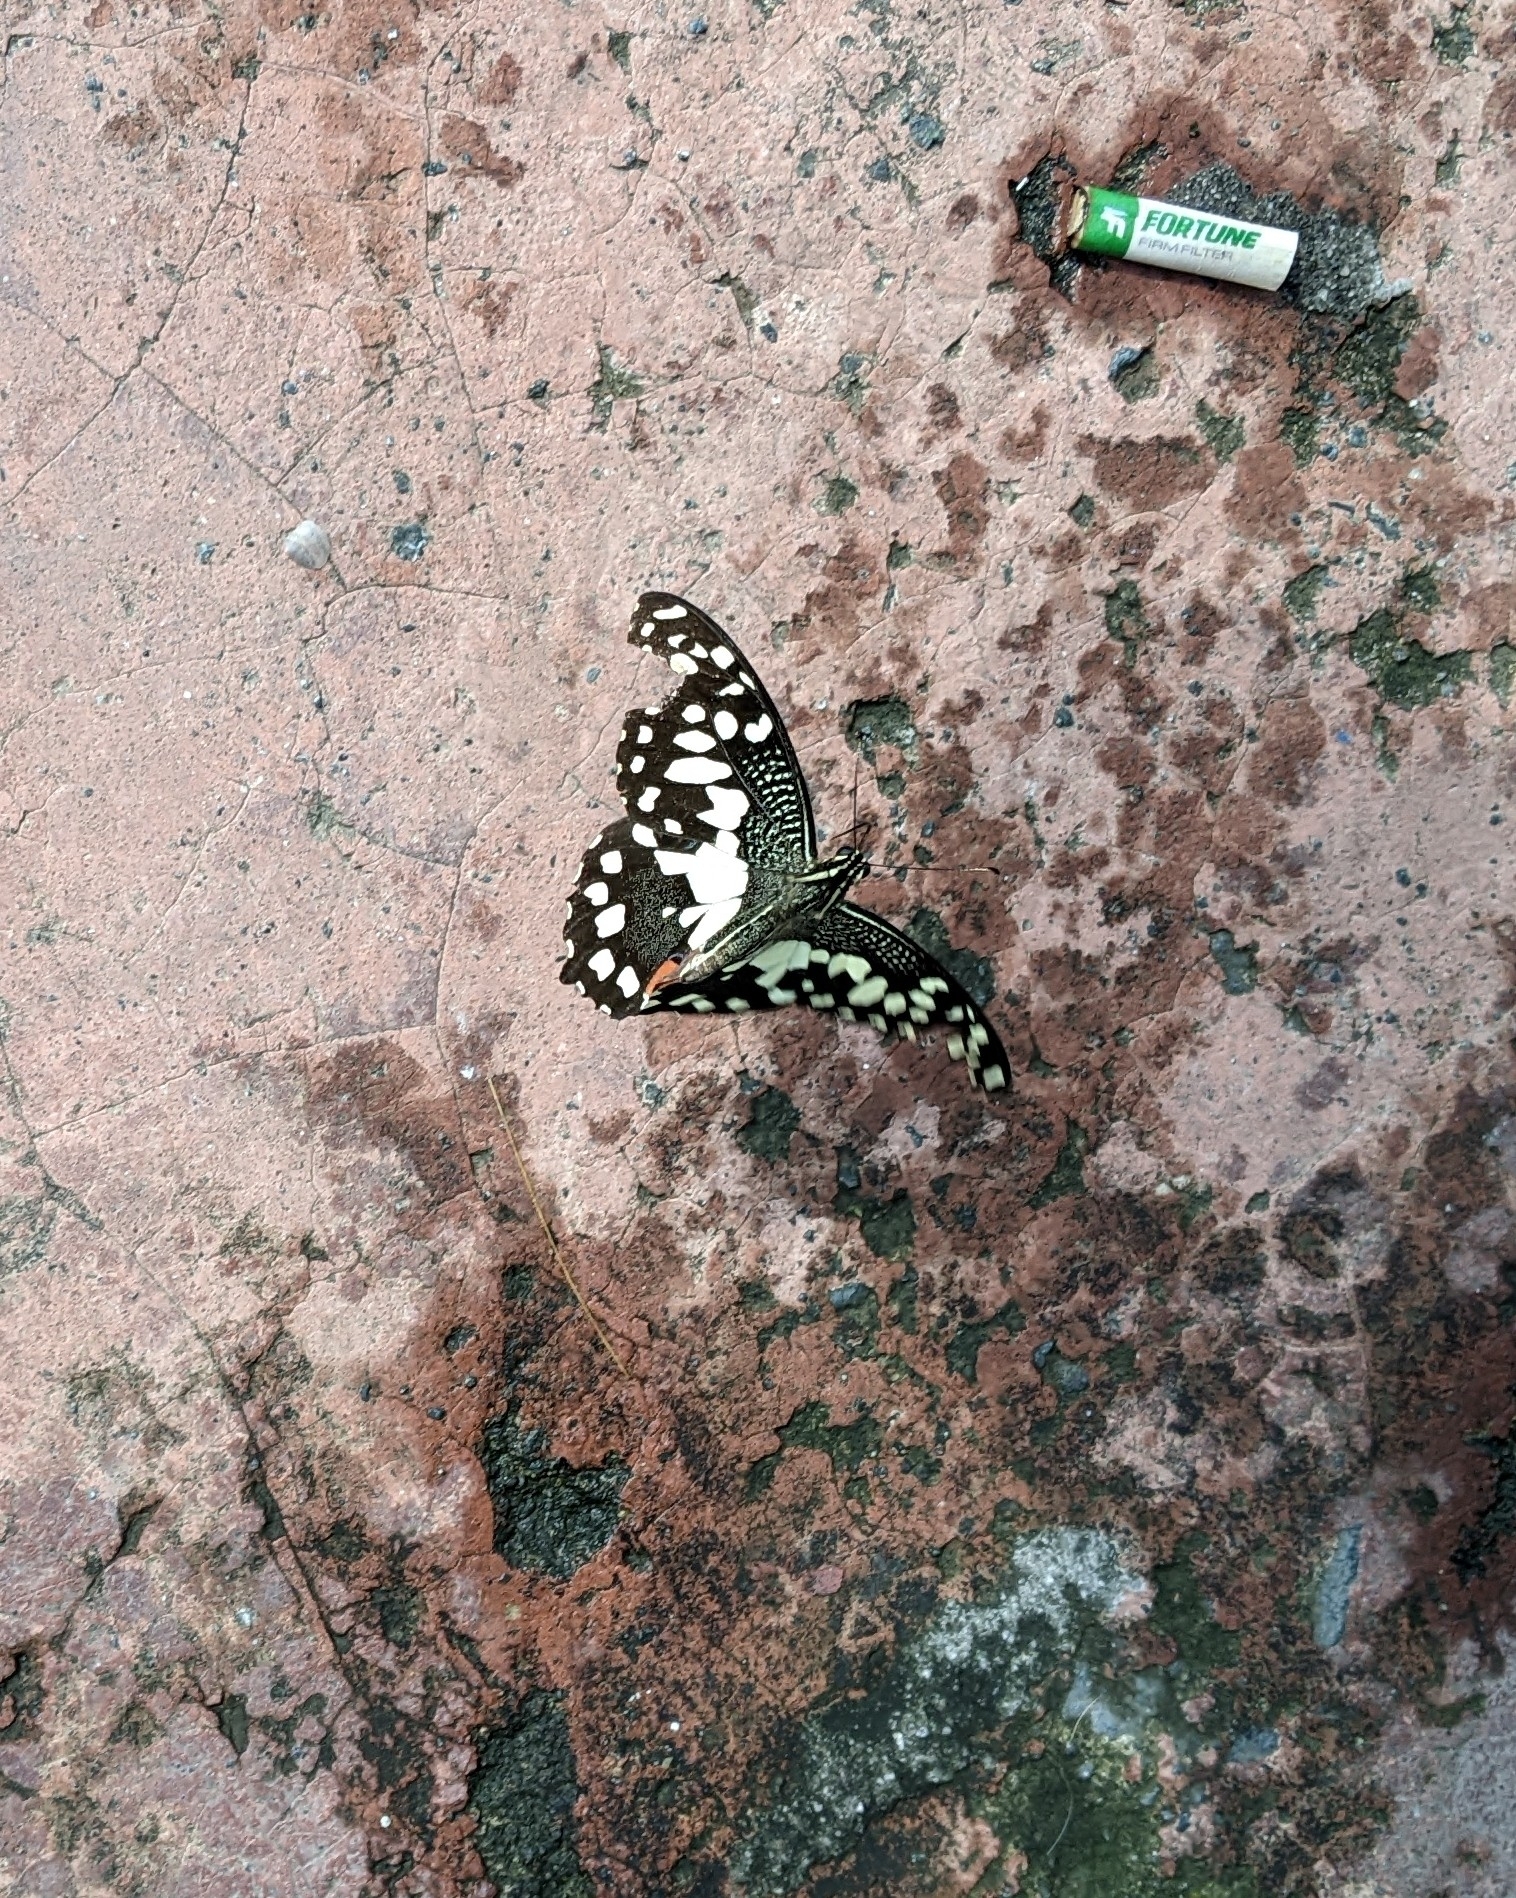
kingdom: Animalia
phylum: Arthropoda
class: Insecta
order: Lepidoptera
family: Papilionidae
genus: Papilio
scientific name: Papilio demoleus
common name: Lime butterfly
